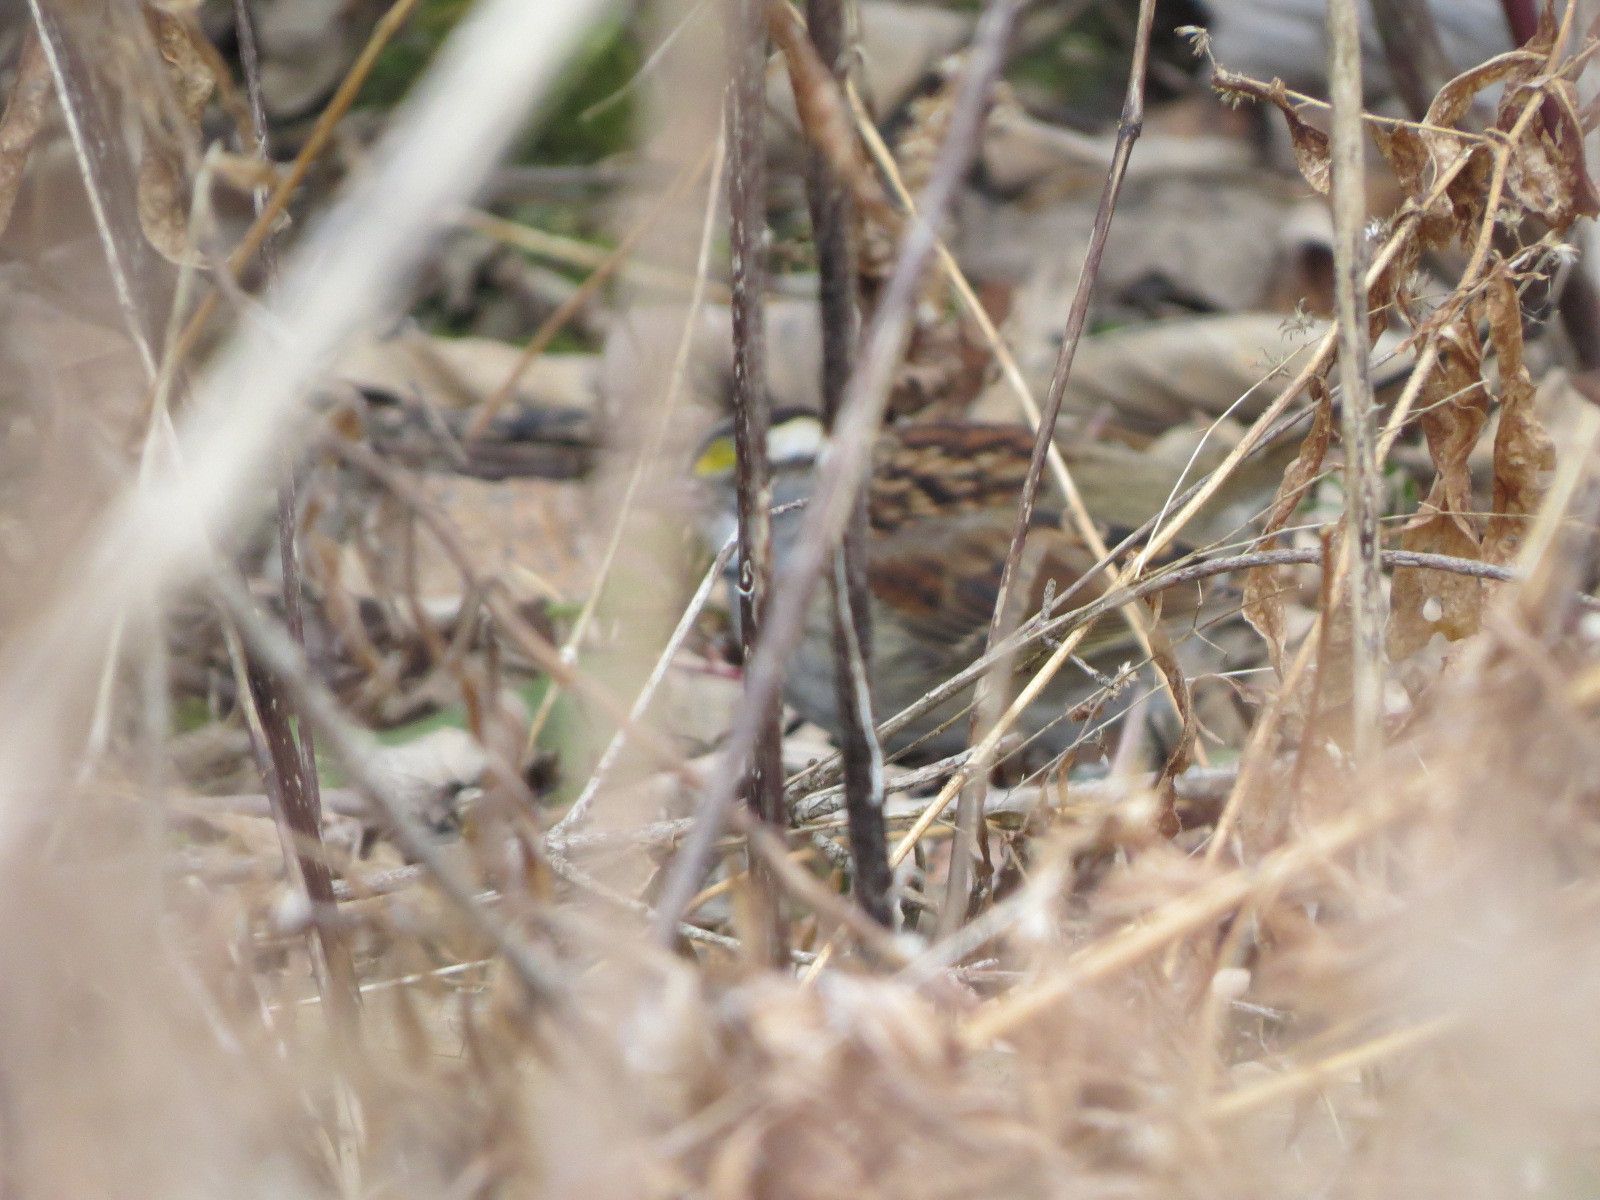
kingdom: Animalia
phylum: Chordata
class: Aves
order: Passeriformes
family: Passerellidae
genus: Zonotrichia
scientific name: Zonotrichia albicollis
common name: White-throated sparrow
